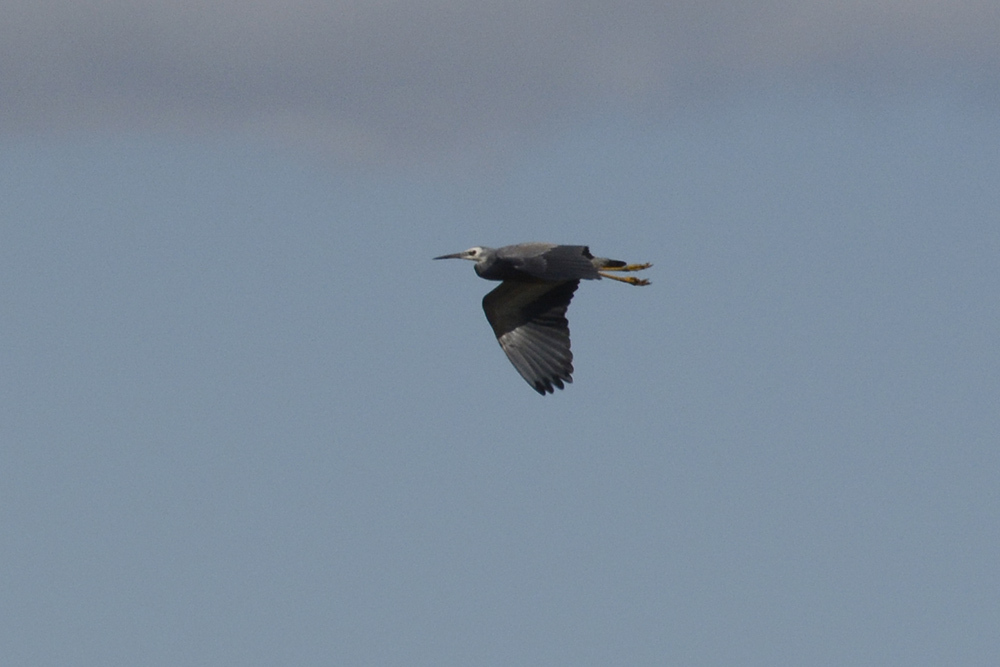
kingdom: Animalia
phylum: Chordata
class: Aves
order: Pelecaniformes
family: Ardeidae
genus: Egretta
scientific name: Egretta novaehollandiae
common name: White-faced heron
